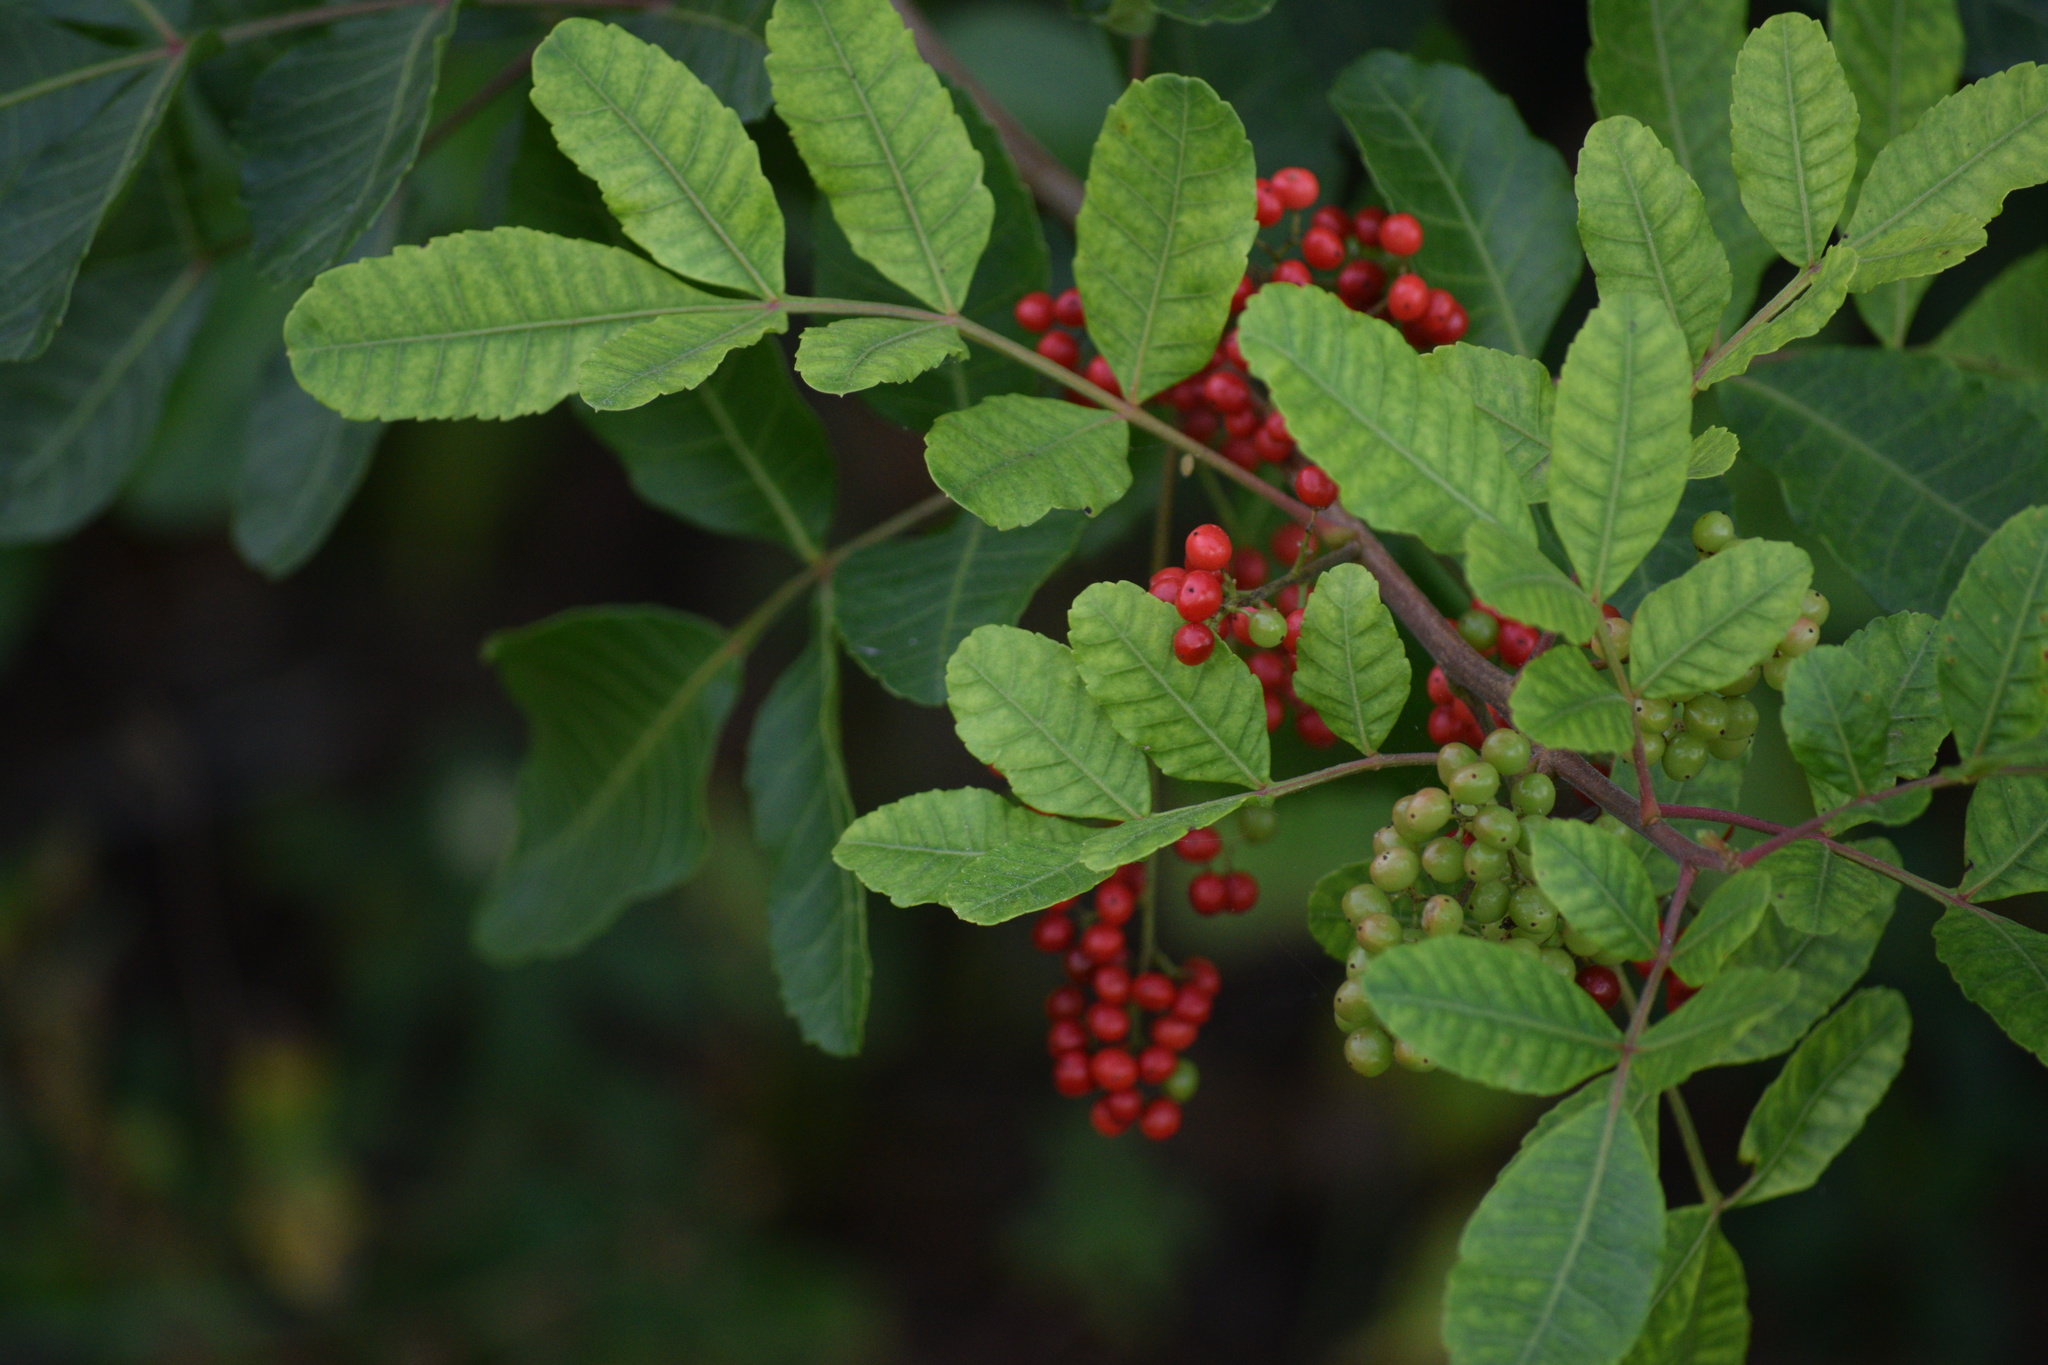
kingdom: Plantae
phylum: Tracheophyta
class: Magnoliopsida
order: Sapindales
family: Anacardiaceae
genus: Schinus
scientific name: Schinus terebinthifolia
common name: Brazilian peppertree
